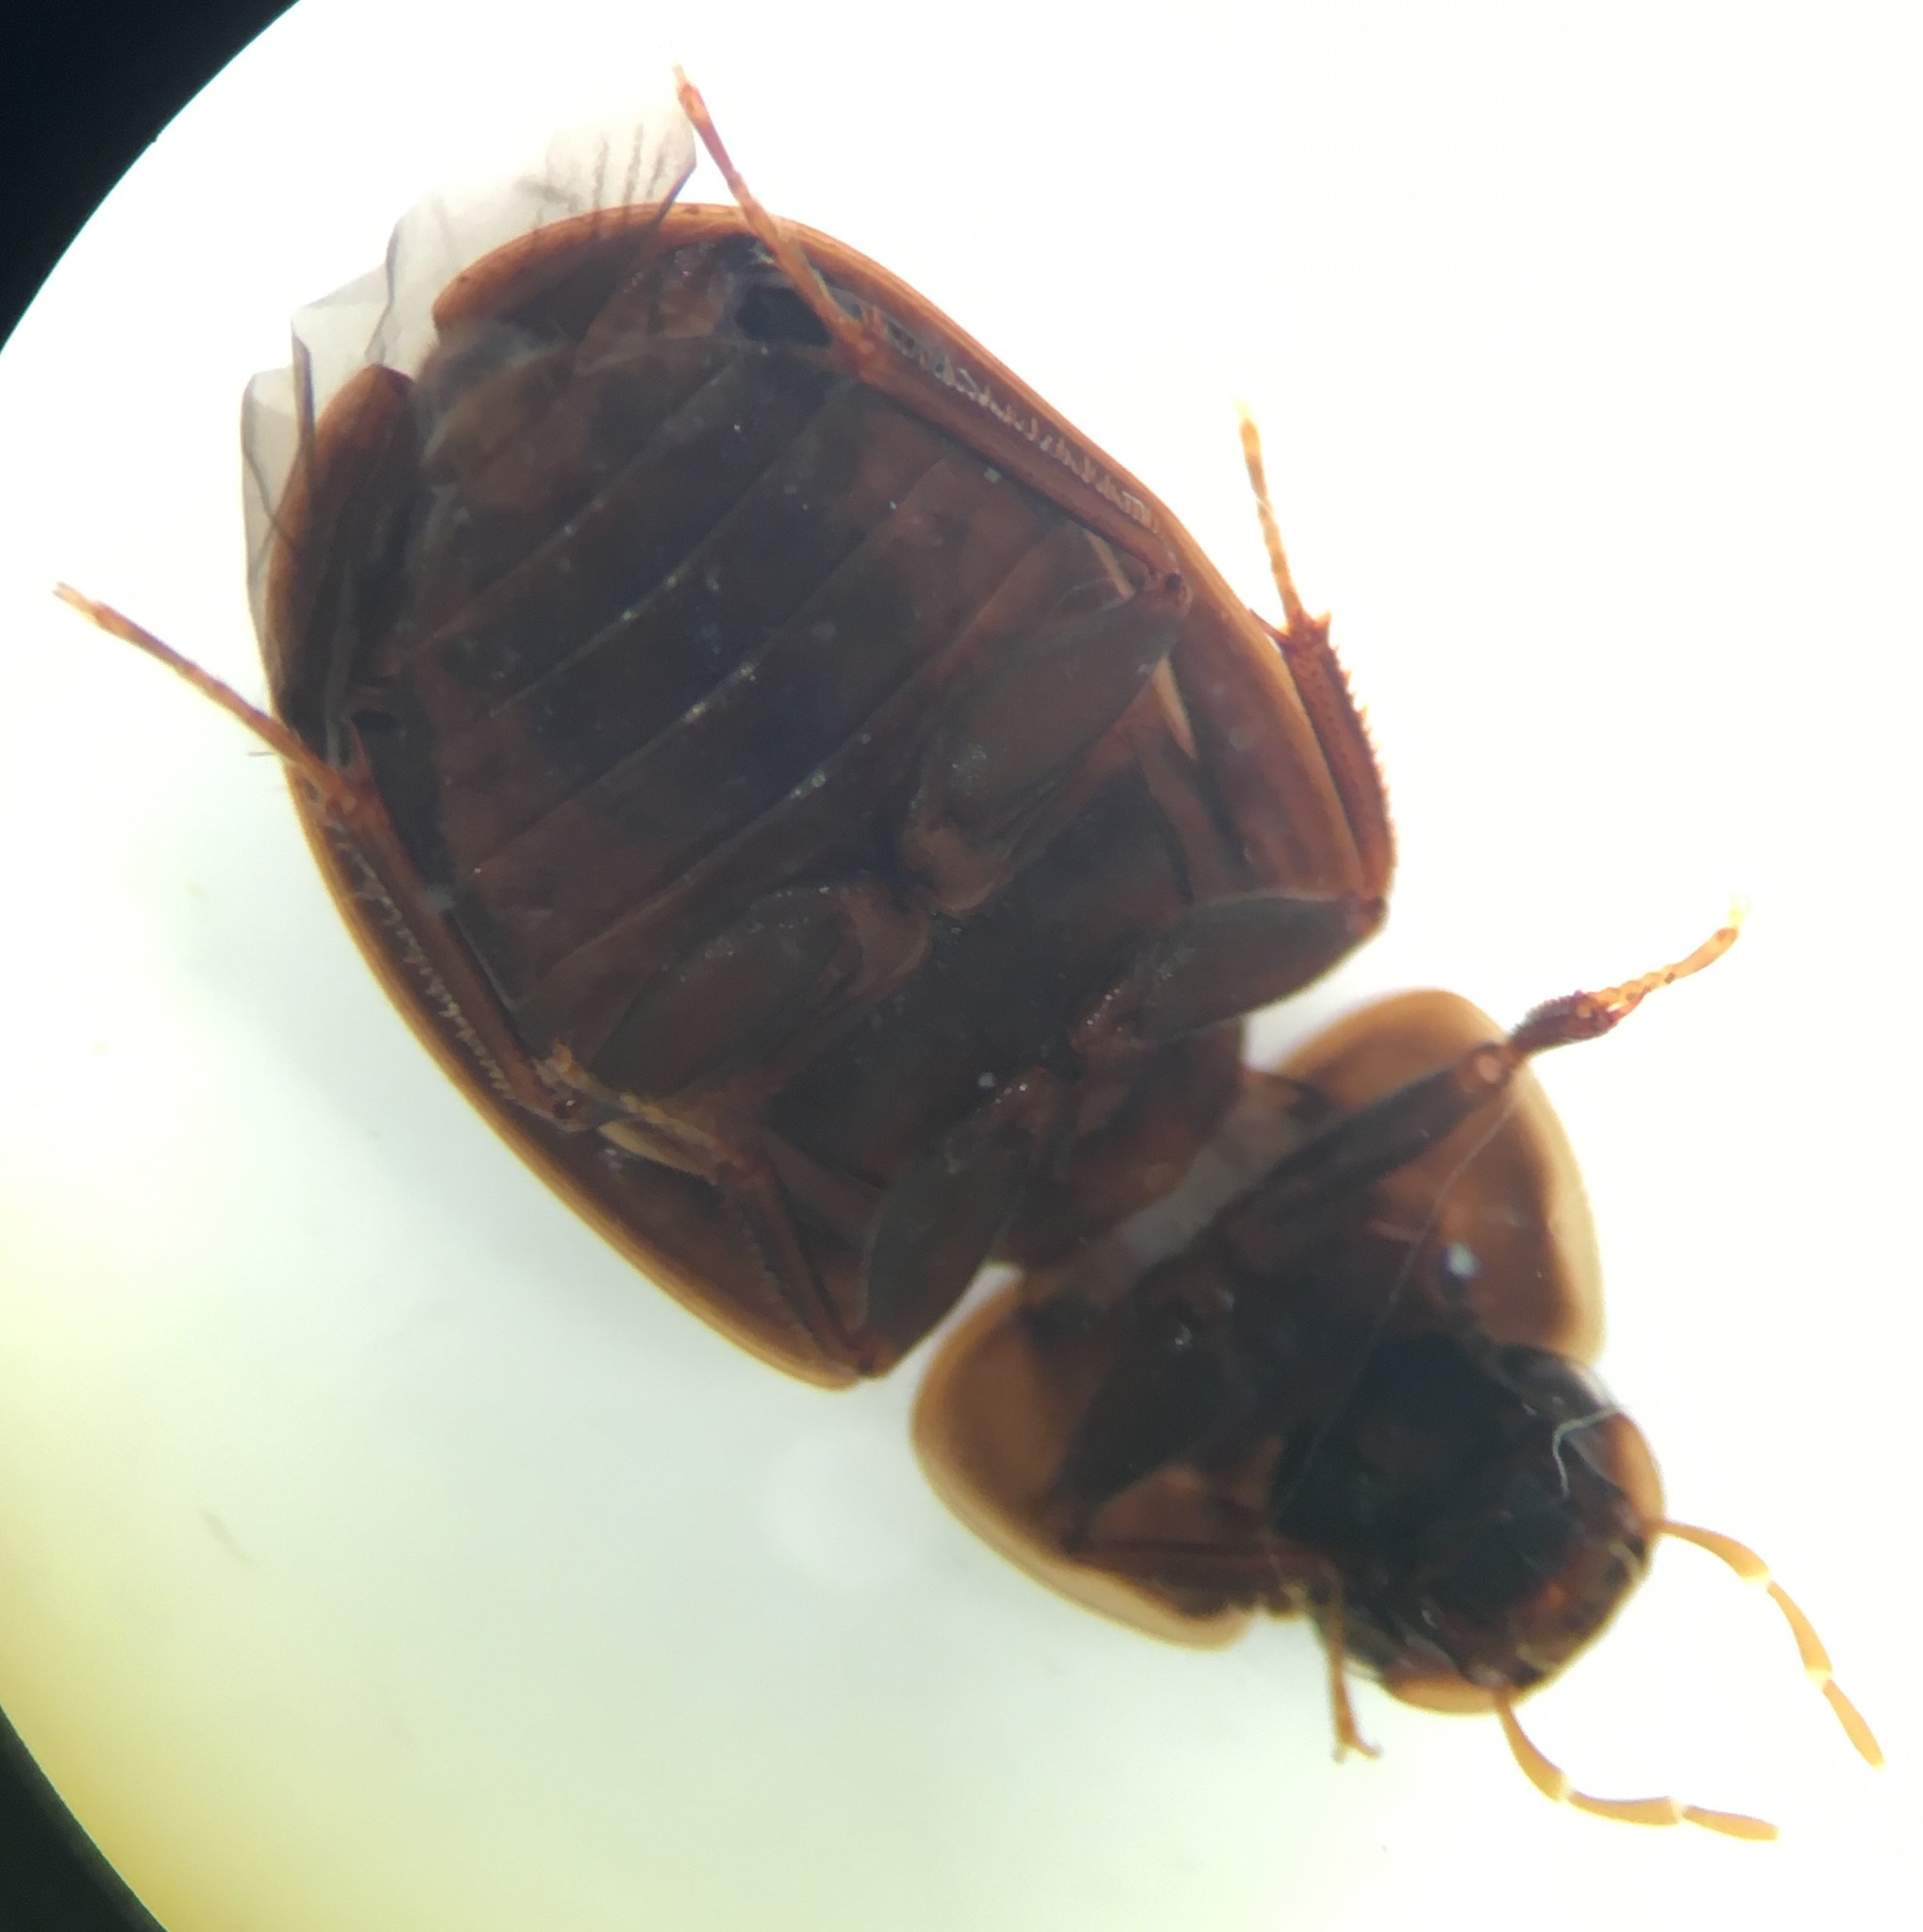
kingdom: Animalia
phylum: Arthropoda
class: Insecta
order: Coleoptera
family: Hydrophilidae
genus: Helochares
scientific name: Helochares maculicollis
